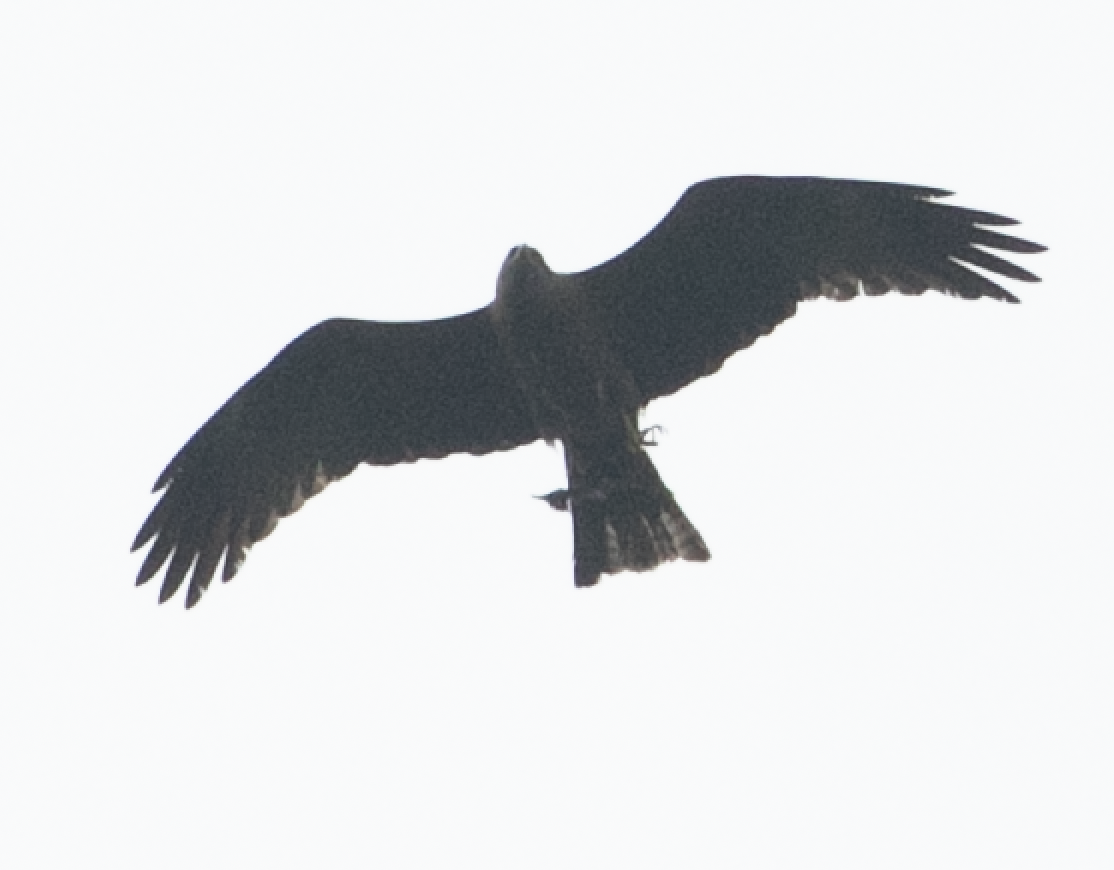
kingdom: Animalia
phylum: Chordata
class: Aves
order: Accipitriformes
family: Accipitridae
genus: Milvus
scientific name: Milvus migrans
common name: Black kite
